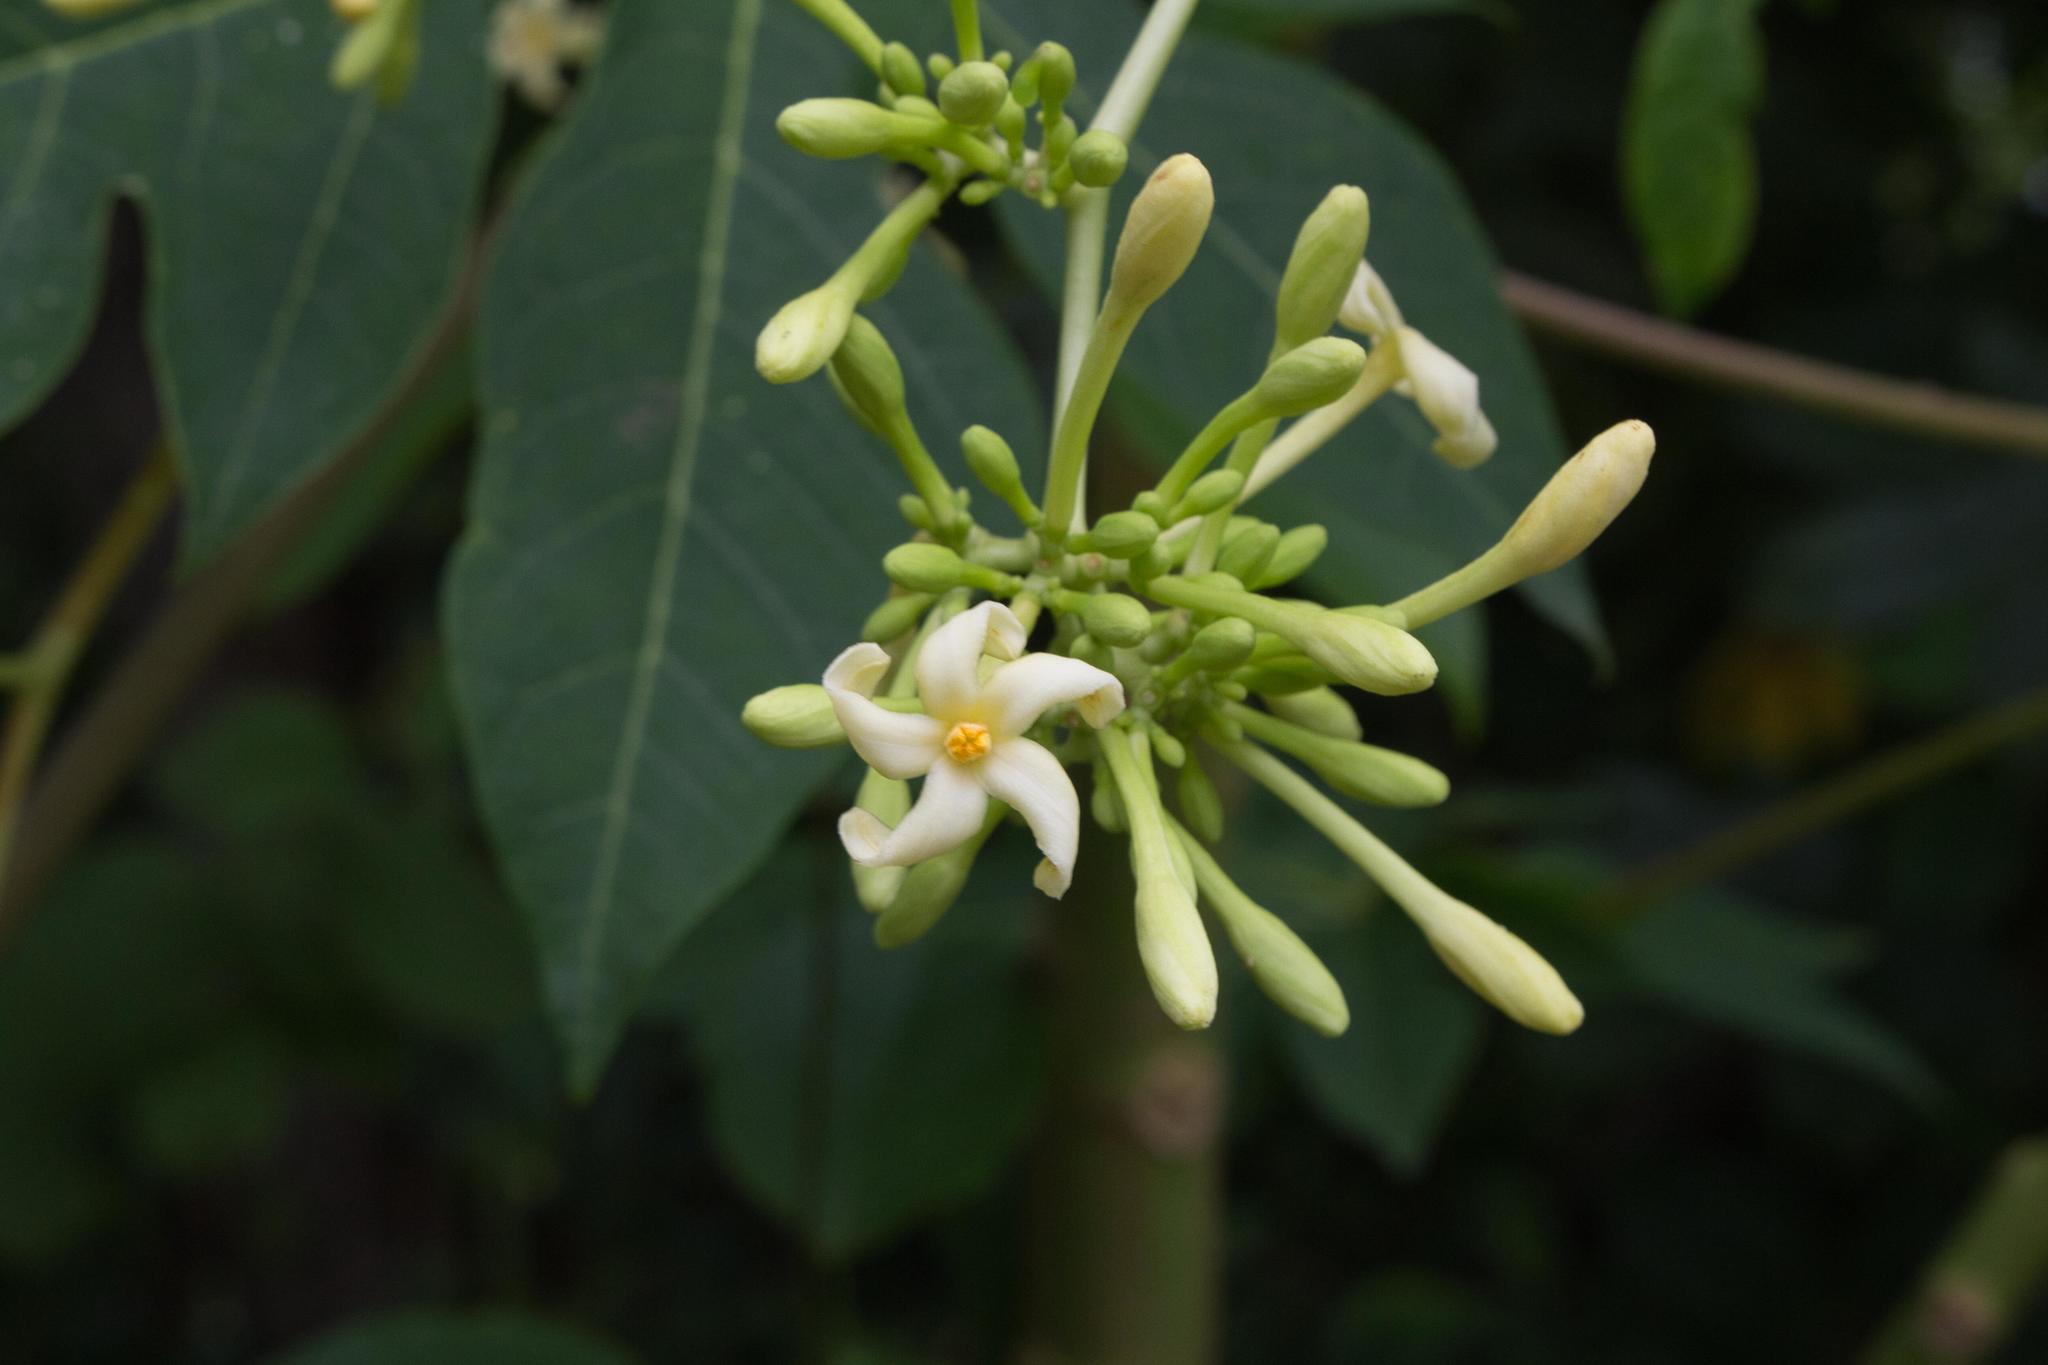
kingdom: Plantae
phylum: Tracheophyta
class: Magnoliopsida
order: Brassicales
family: Caricaceae
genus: Carica
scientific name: Carica papaya
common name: Papaya
